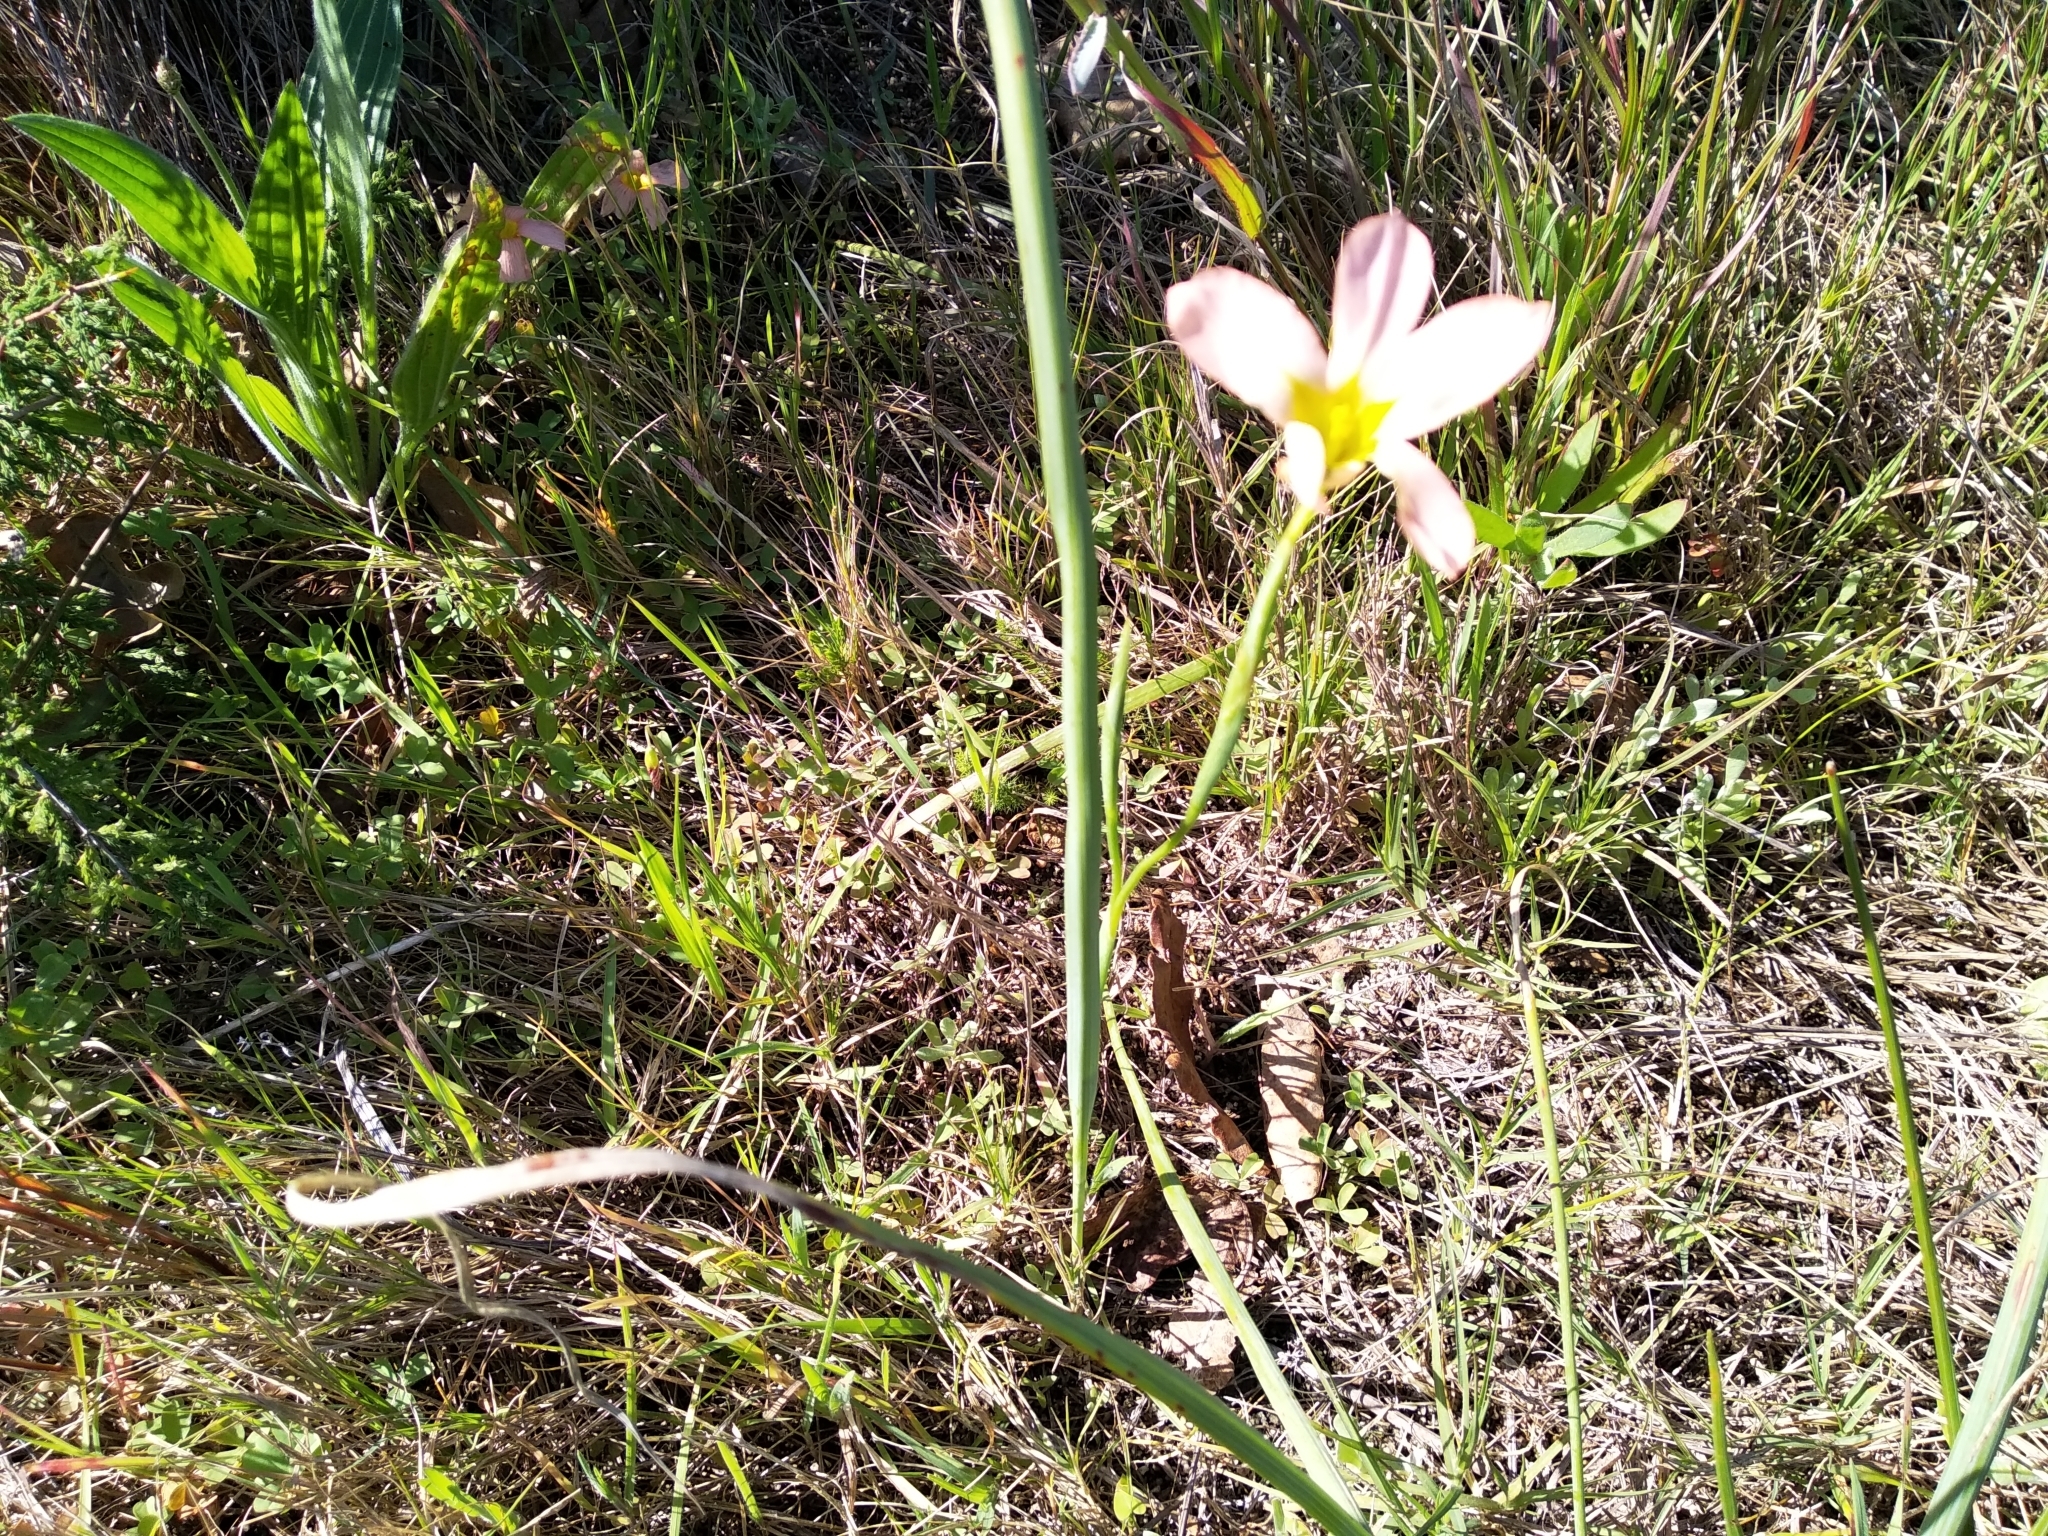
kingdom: Plantae
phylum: Tracheophyta
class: Liliopsida
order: Asparagales
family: Iridaceae
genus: Moraea
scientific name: Moraea collina
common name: Cape-tulip
